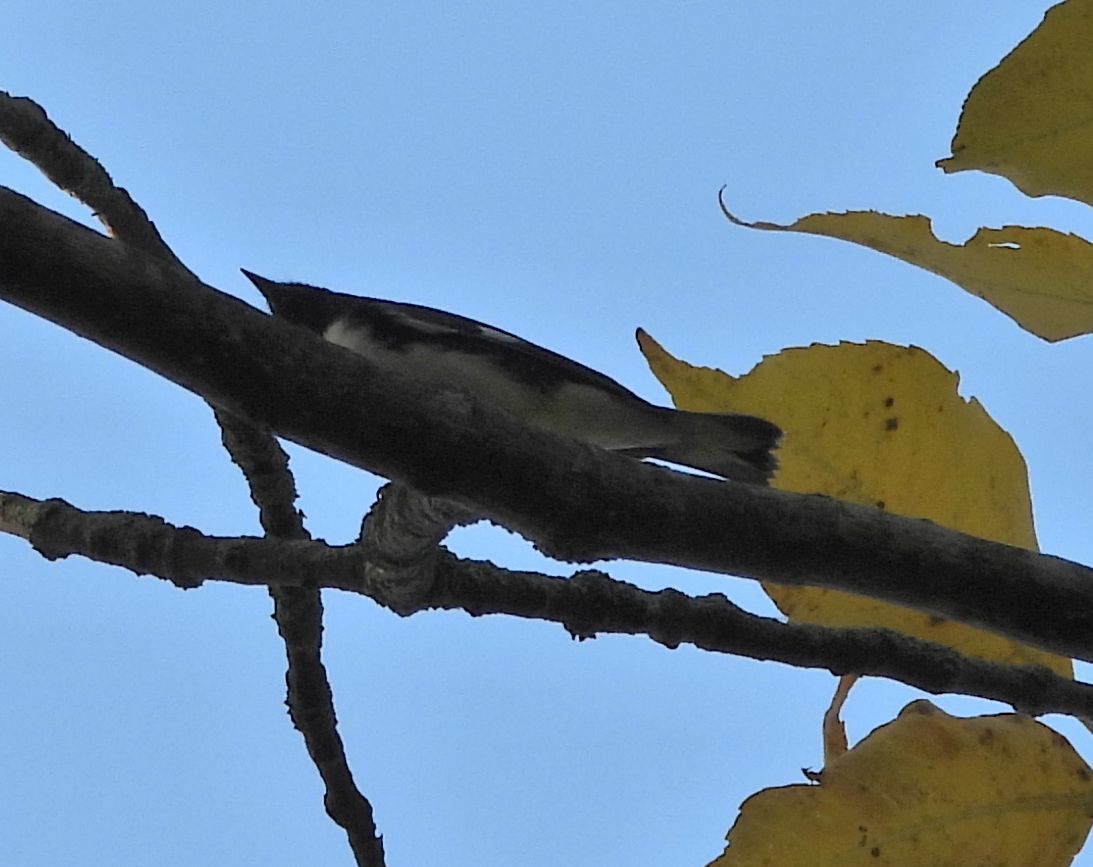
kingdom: Animalia
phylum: Chordata
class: Aves
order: Passeriformes
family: Parulidae
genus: Setophaga
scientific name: Setophaga caerulescens
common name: Black-throated blue warbler
